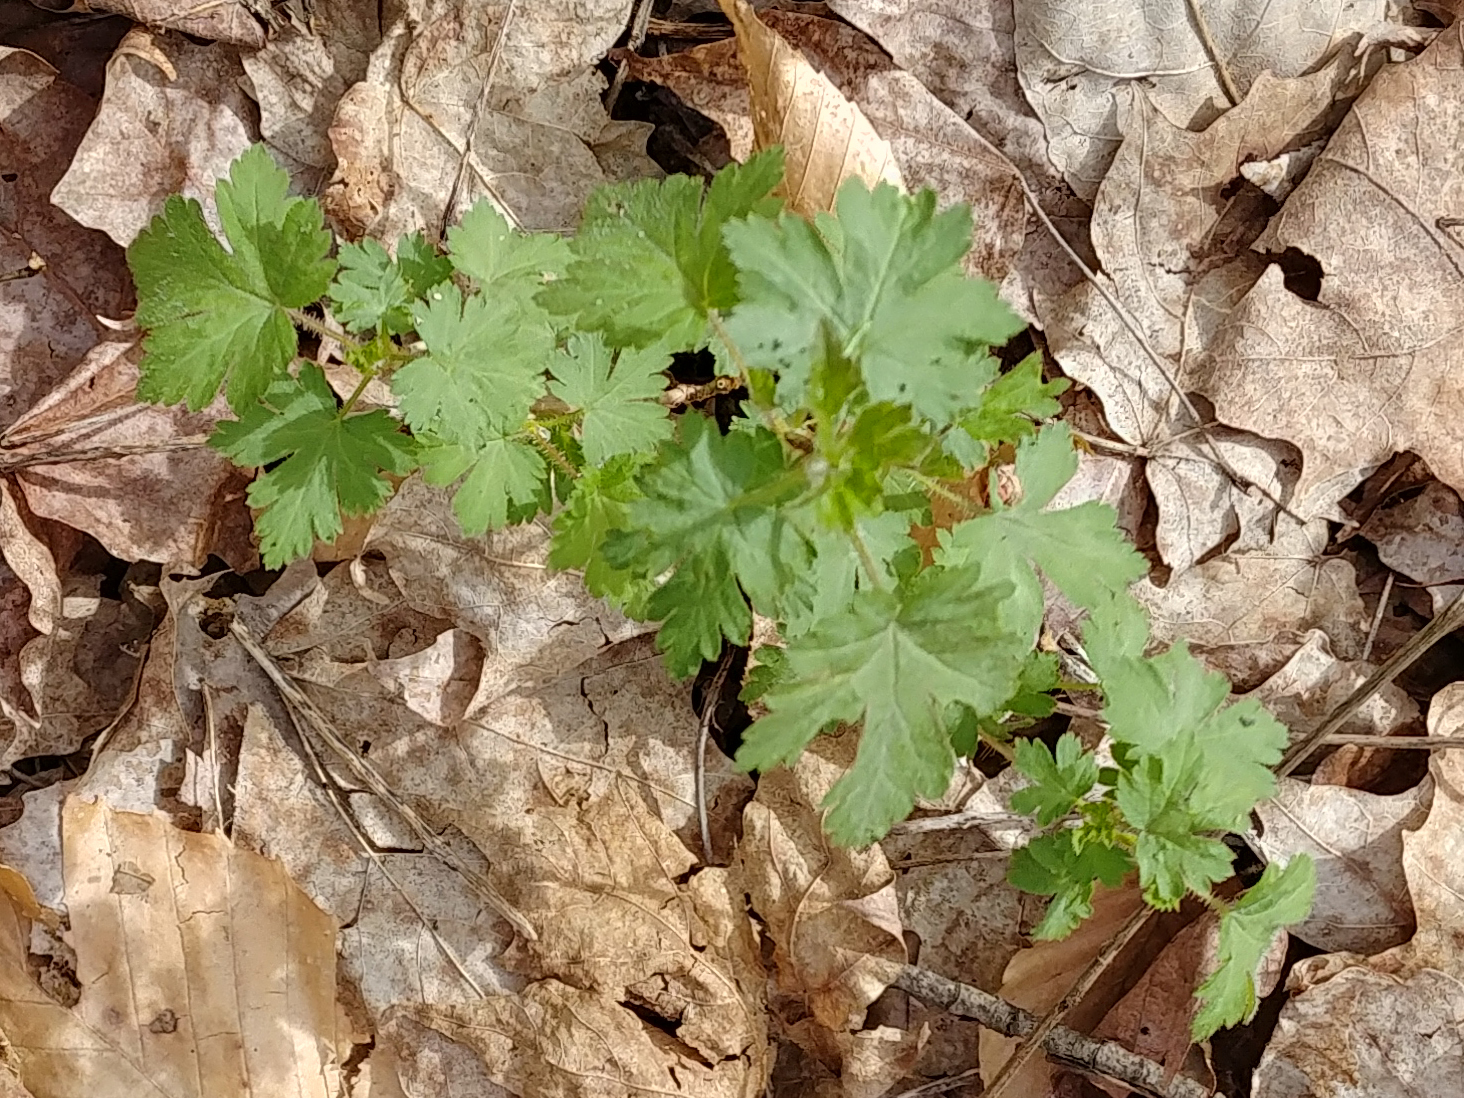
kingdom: Plantae
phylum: Tracheophyta
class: Magnoliopsida
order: Saxifragales
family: Grossulariaceae
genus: Ribes
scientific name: Ribes cynosbati
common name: American gooseberry
